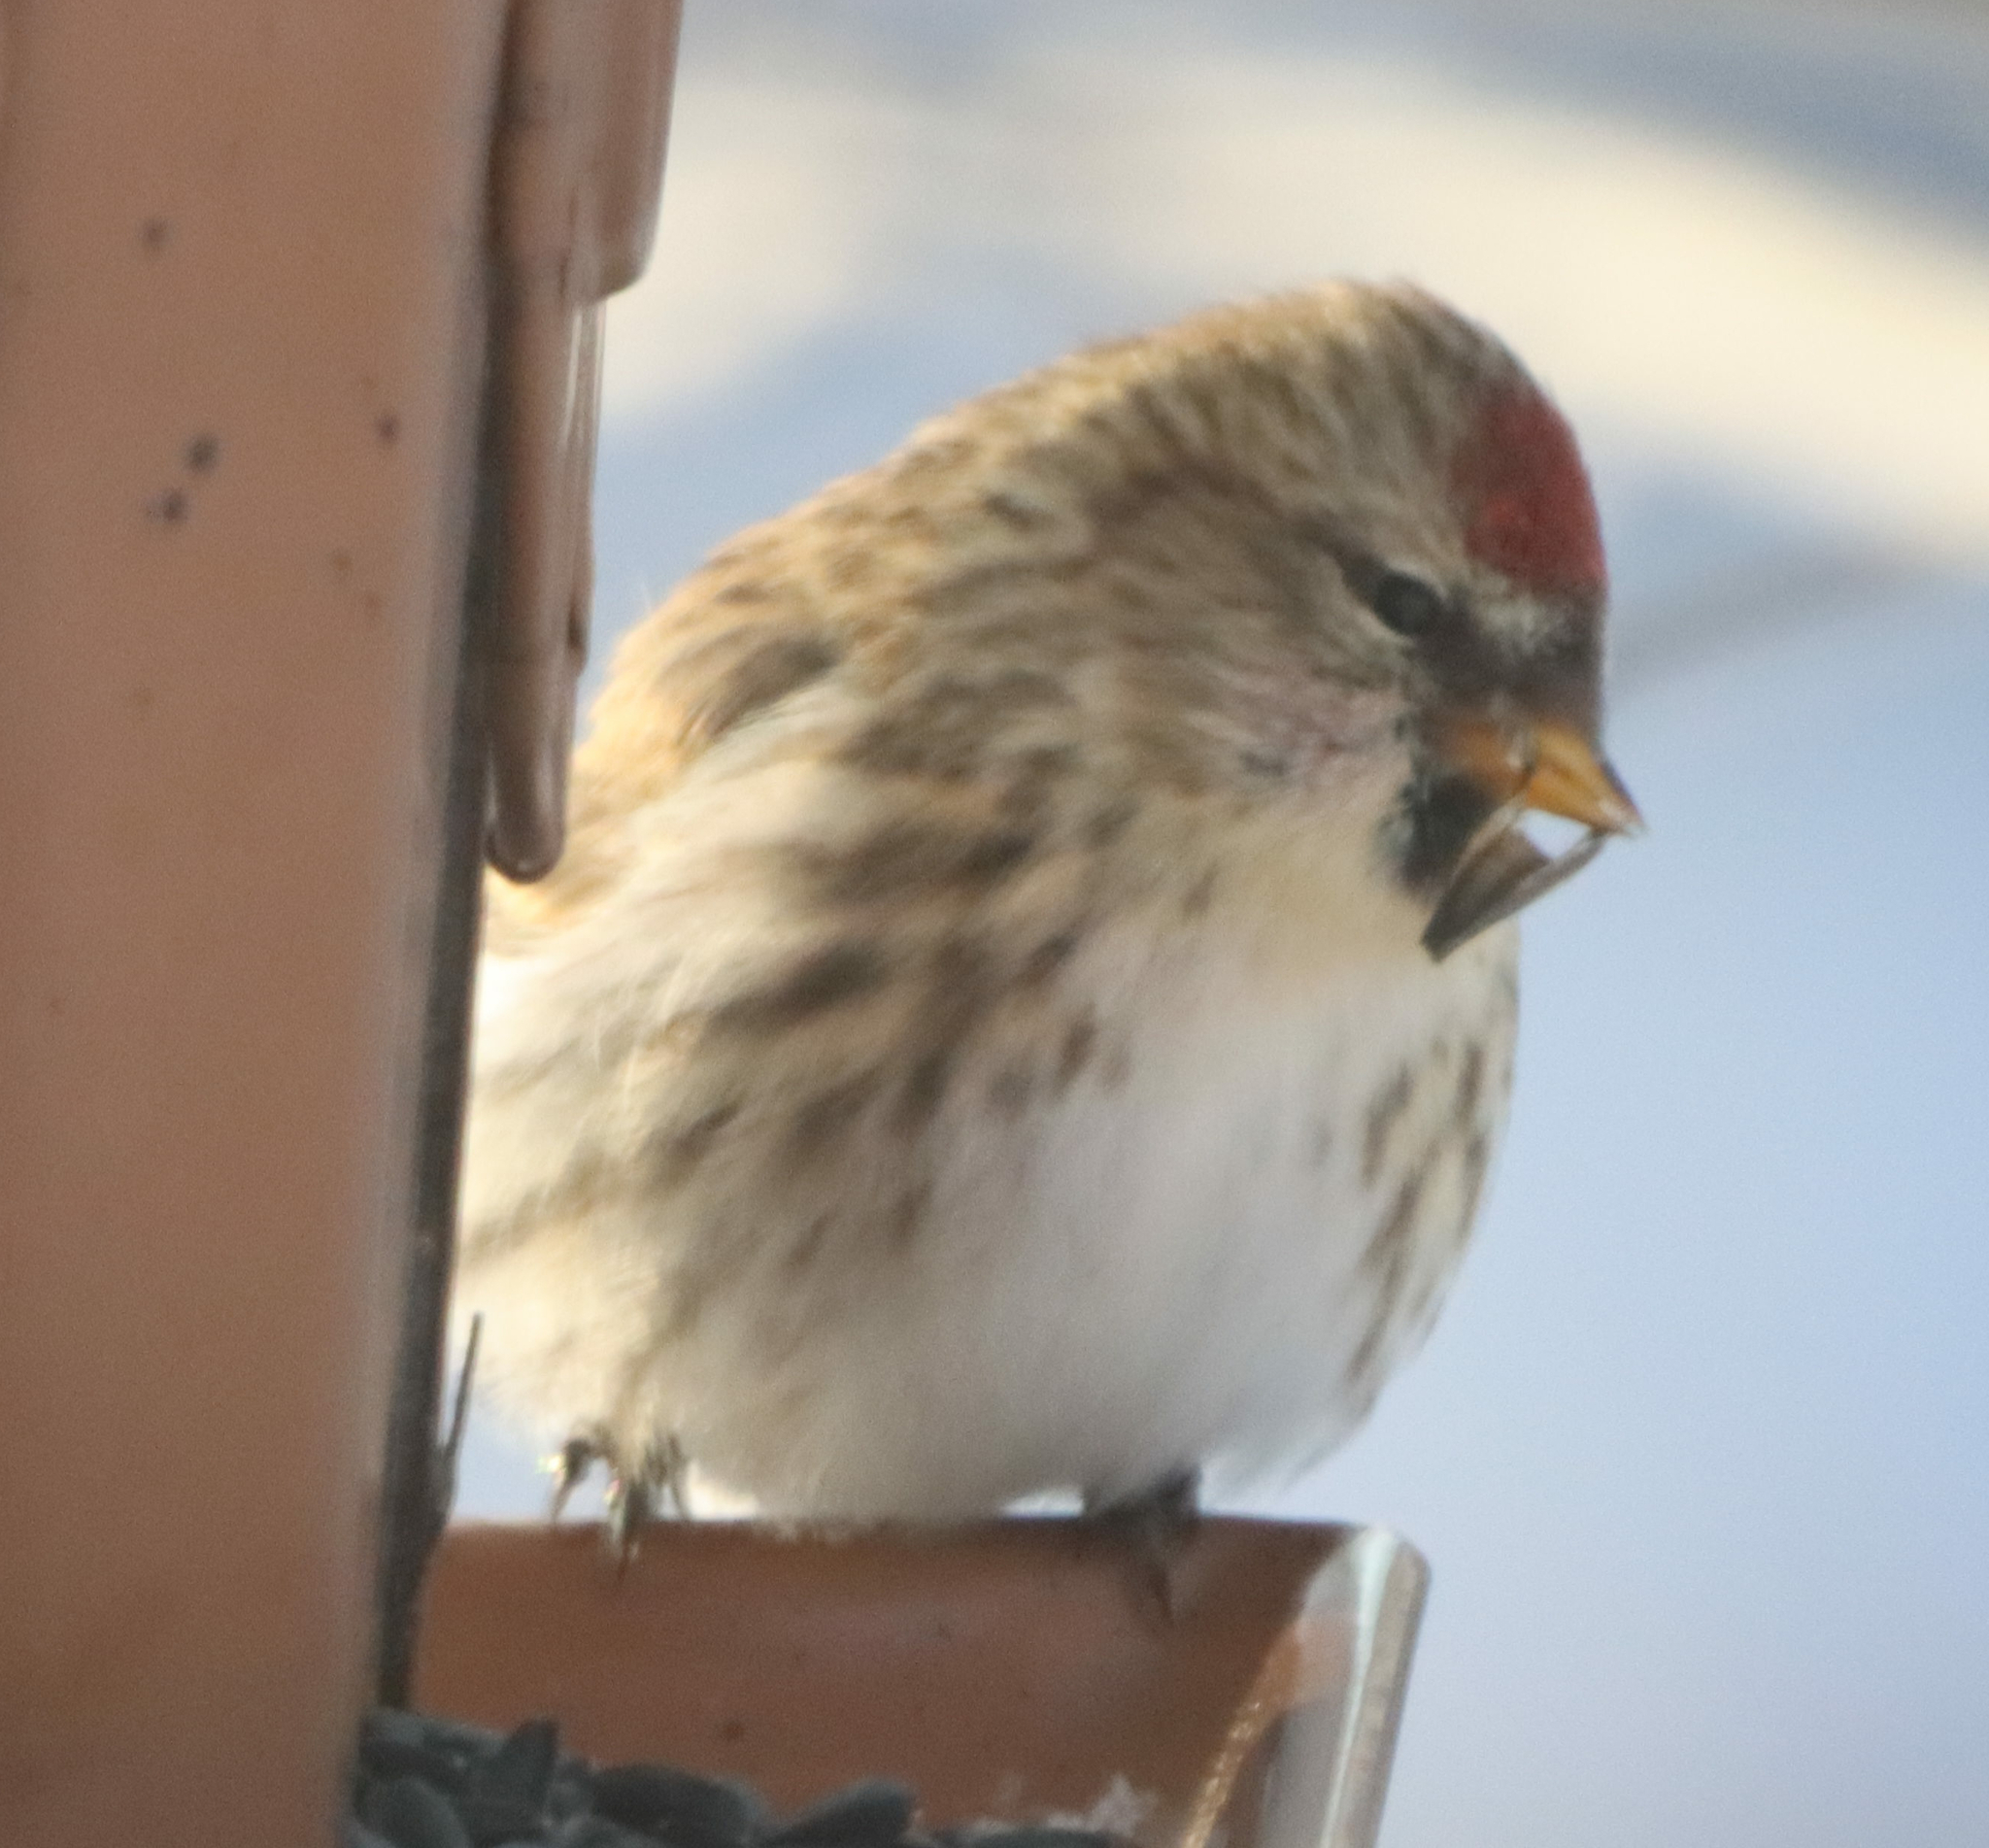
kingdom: Animalia
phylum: Chordata
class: Aves
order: Passeriformes
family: Fringillidae
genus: Acanthis
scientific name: Acanthis flammea
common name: Common redpoll
